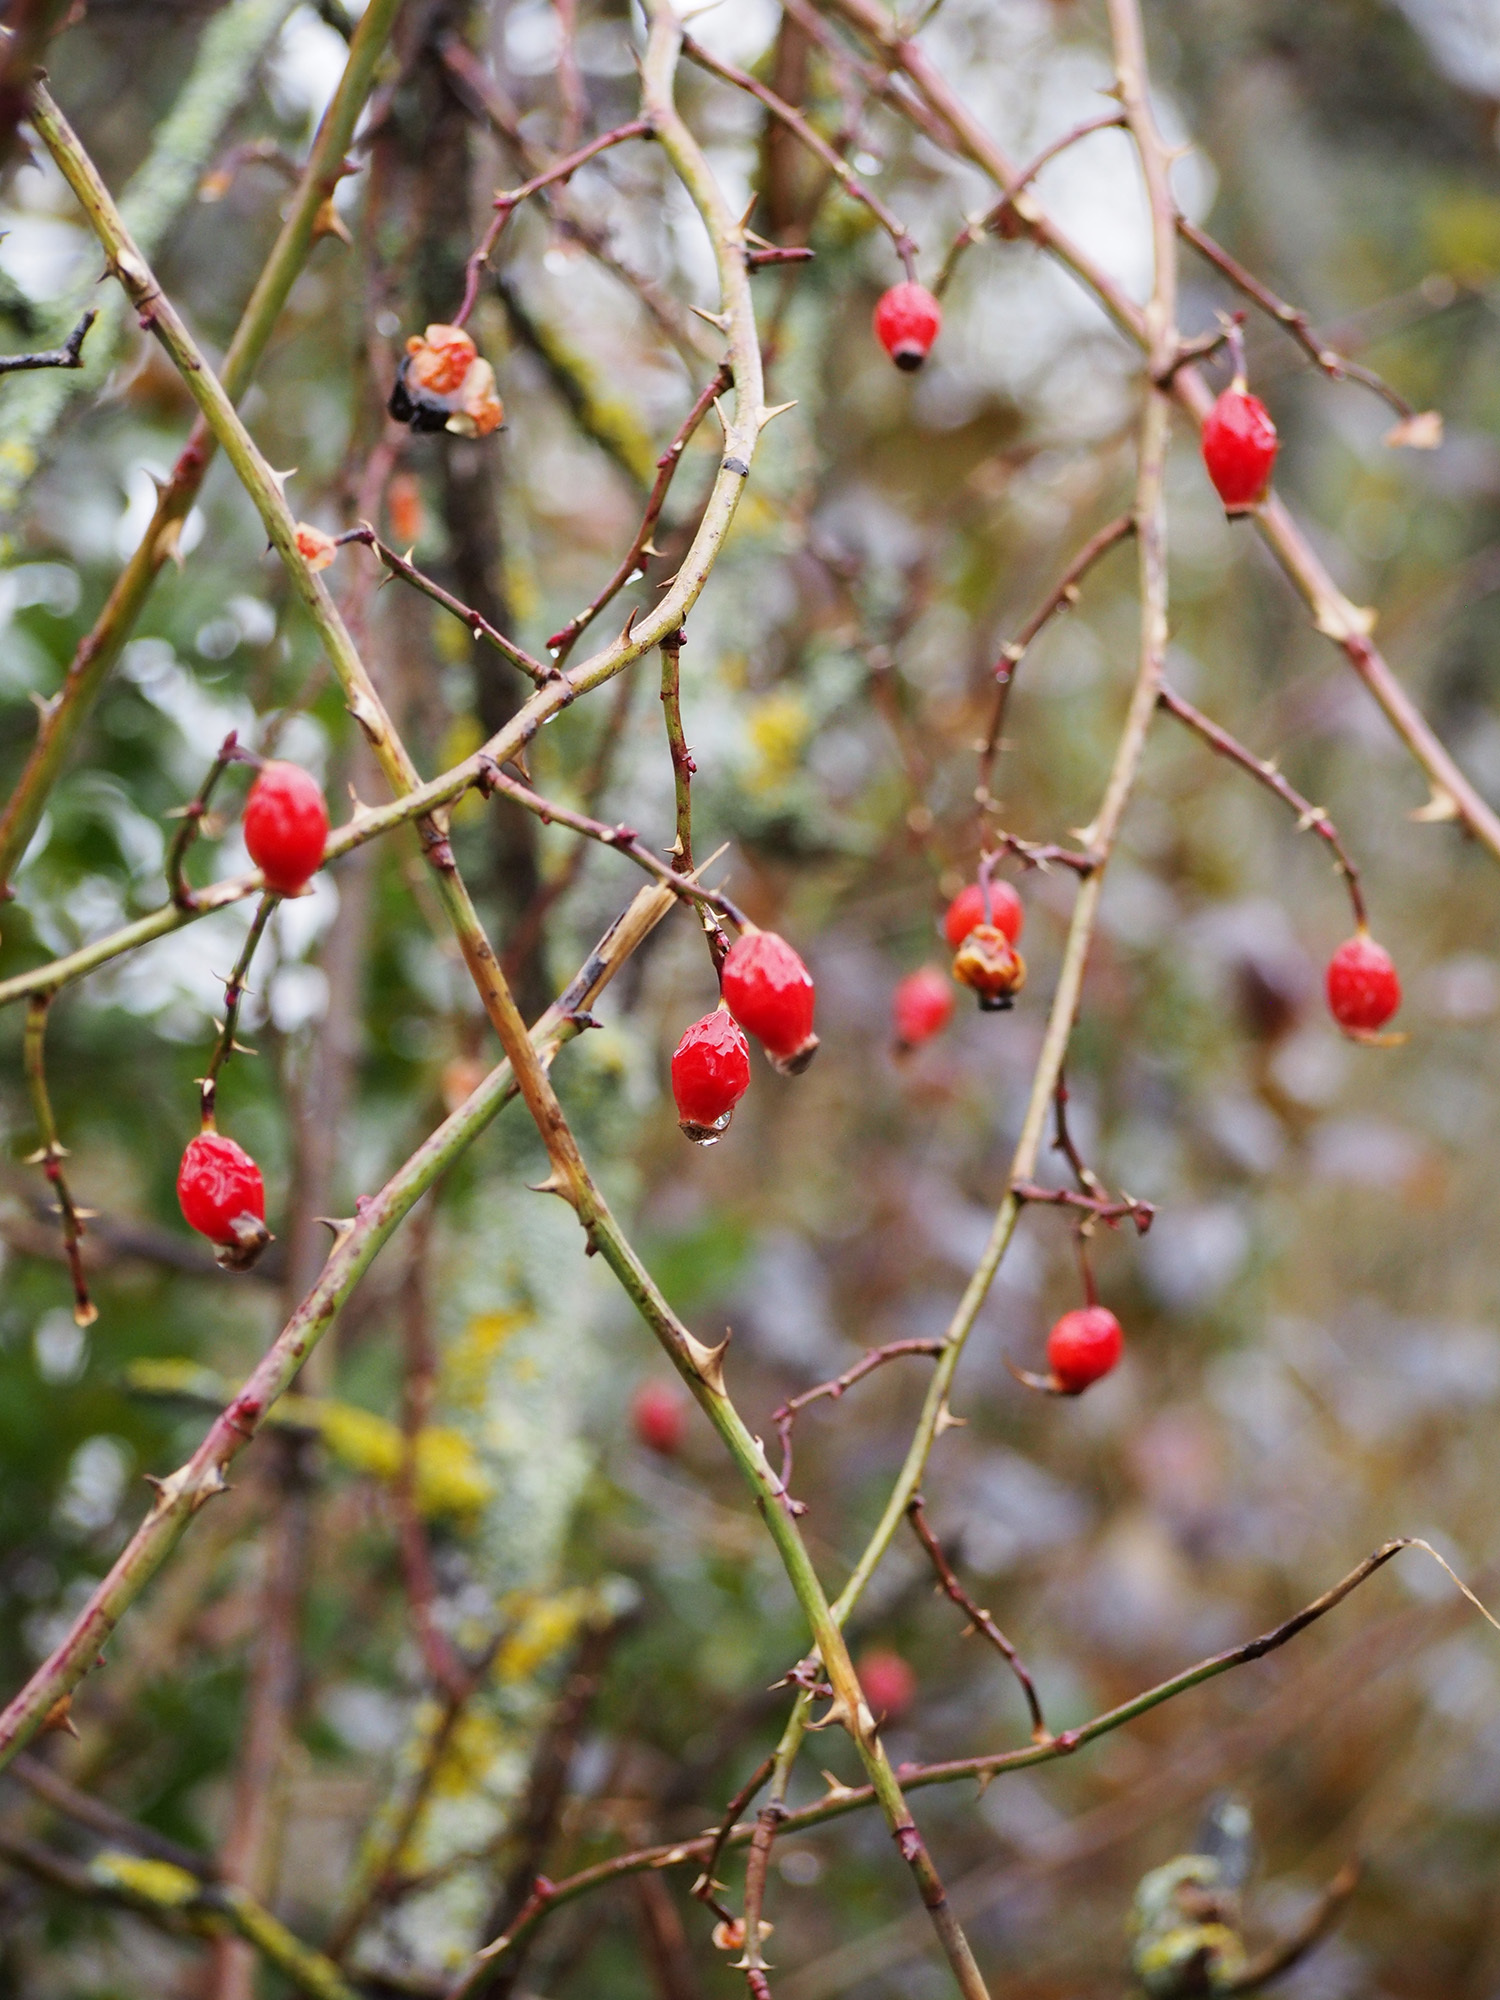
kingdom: Plantae
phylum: Tracheophyta
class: Magnoliopsida
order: Rosales
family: Rosaceae
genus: Rosa
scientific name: Rosa canina
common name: Dog rose
